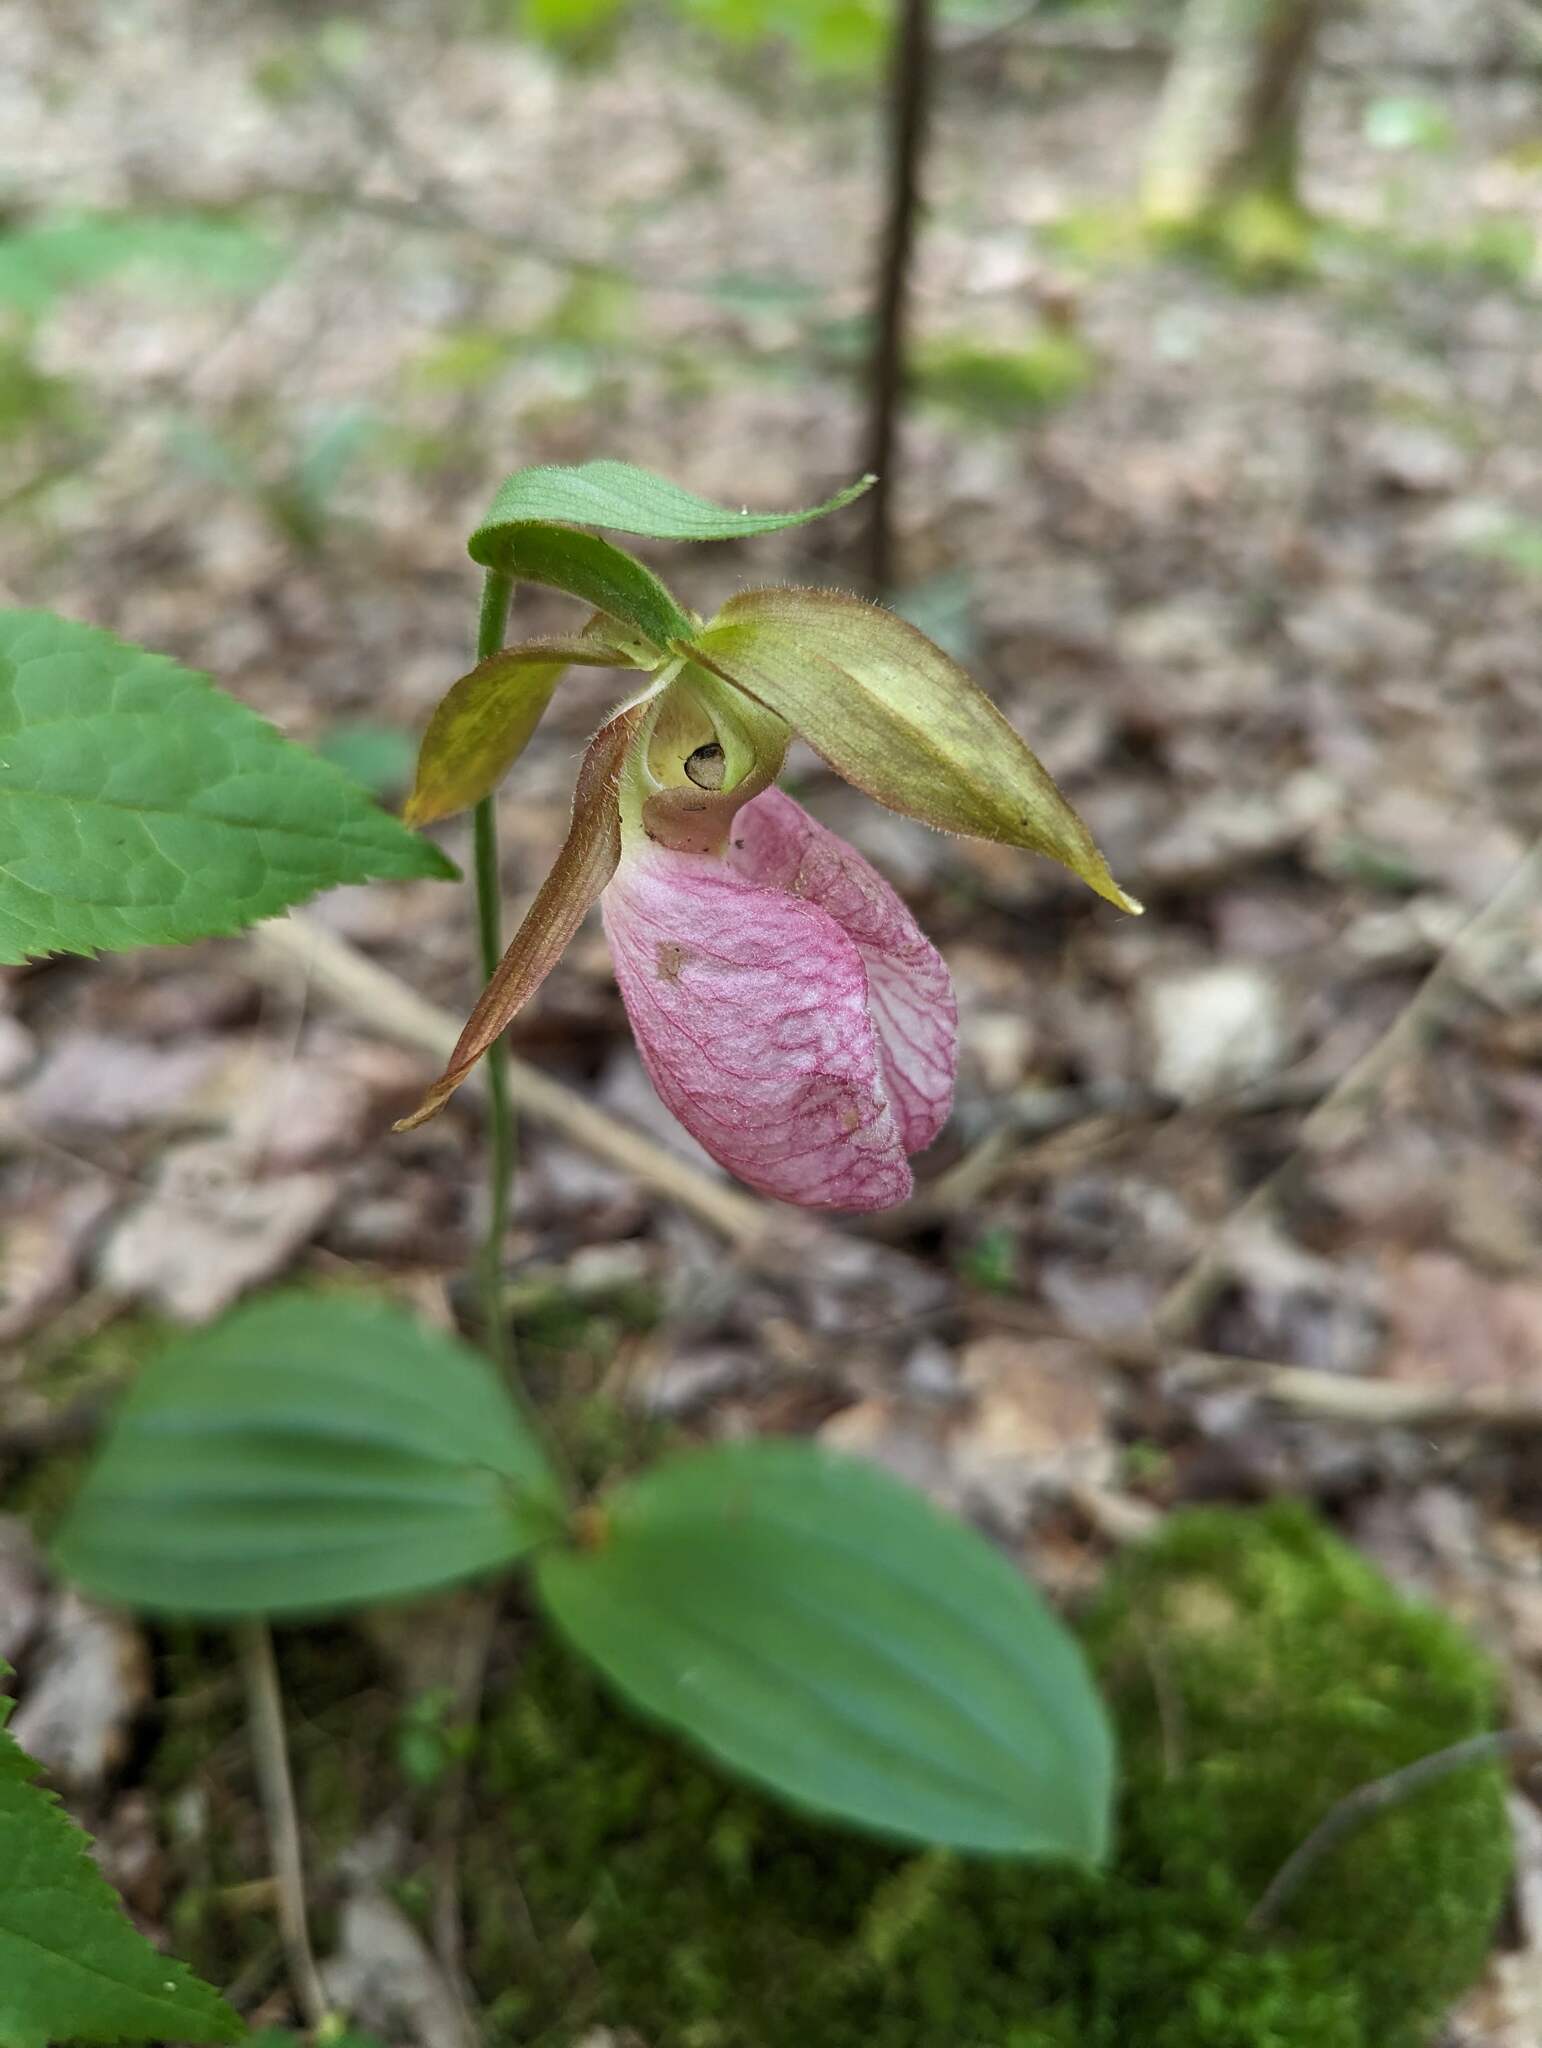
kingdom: Plantae
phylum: Tracheophyta
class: Liliopsida
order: Asparagales
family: Orchidaceae
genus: Cypripedium
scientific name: Cypripedium acaule
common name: Pink lady's-slipper
